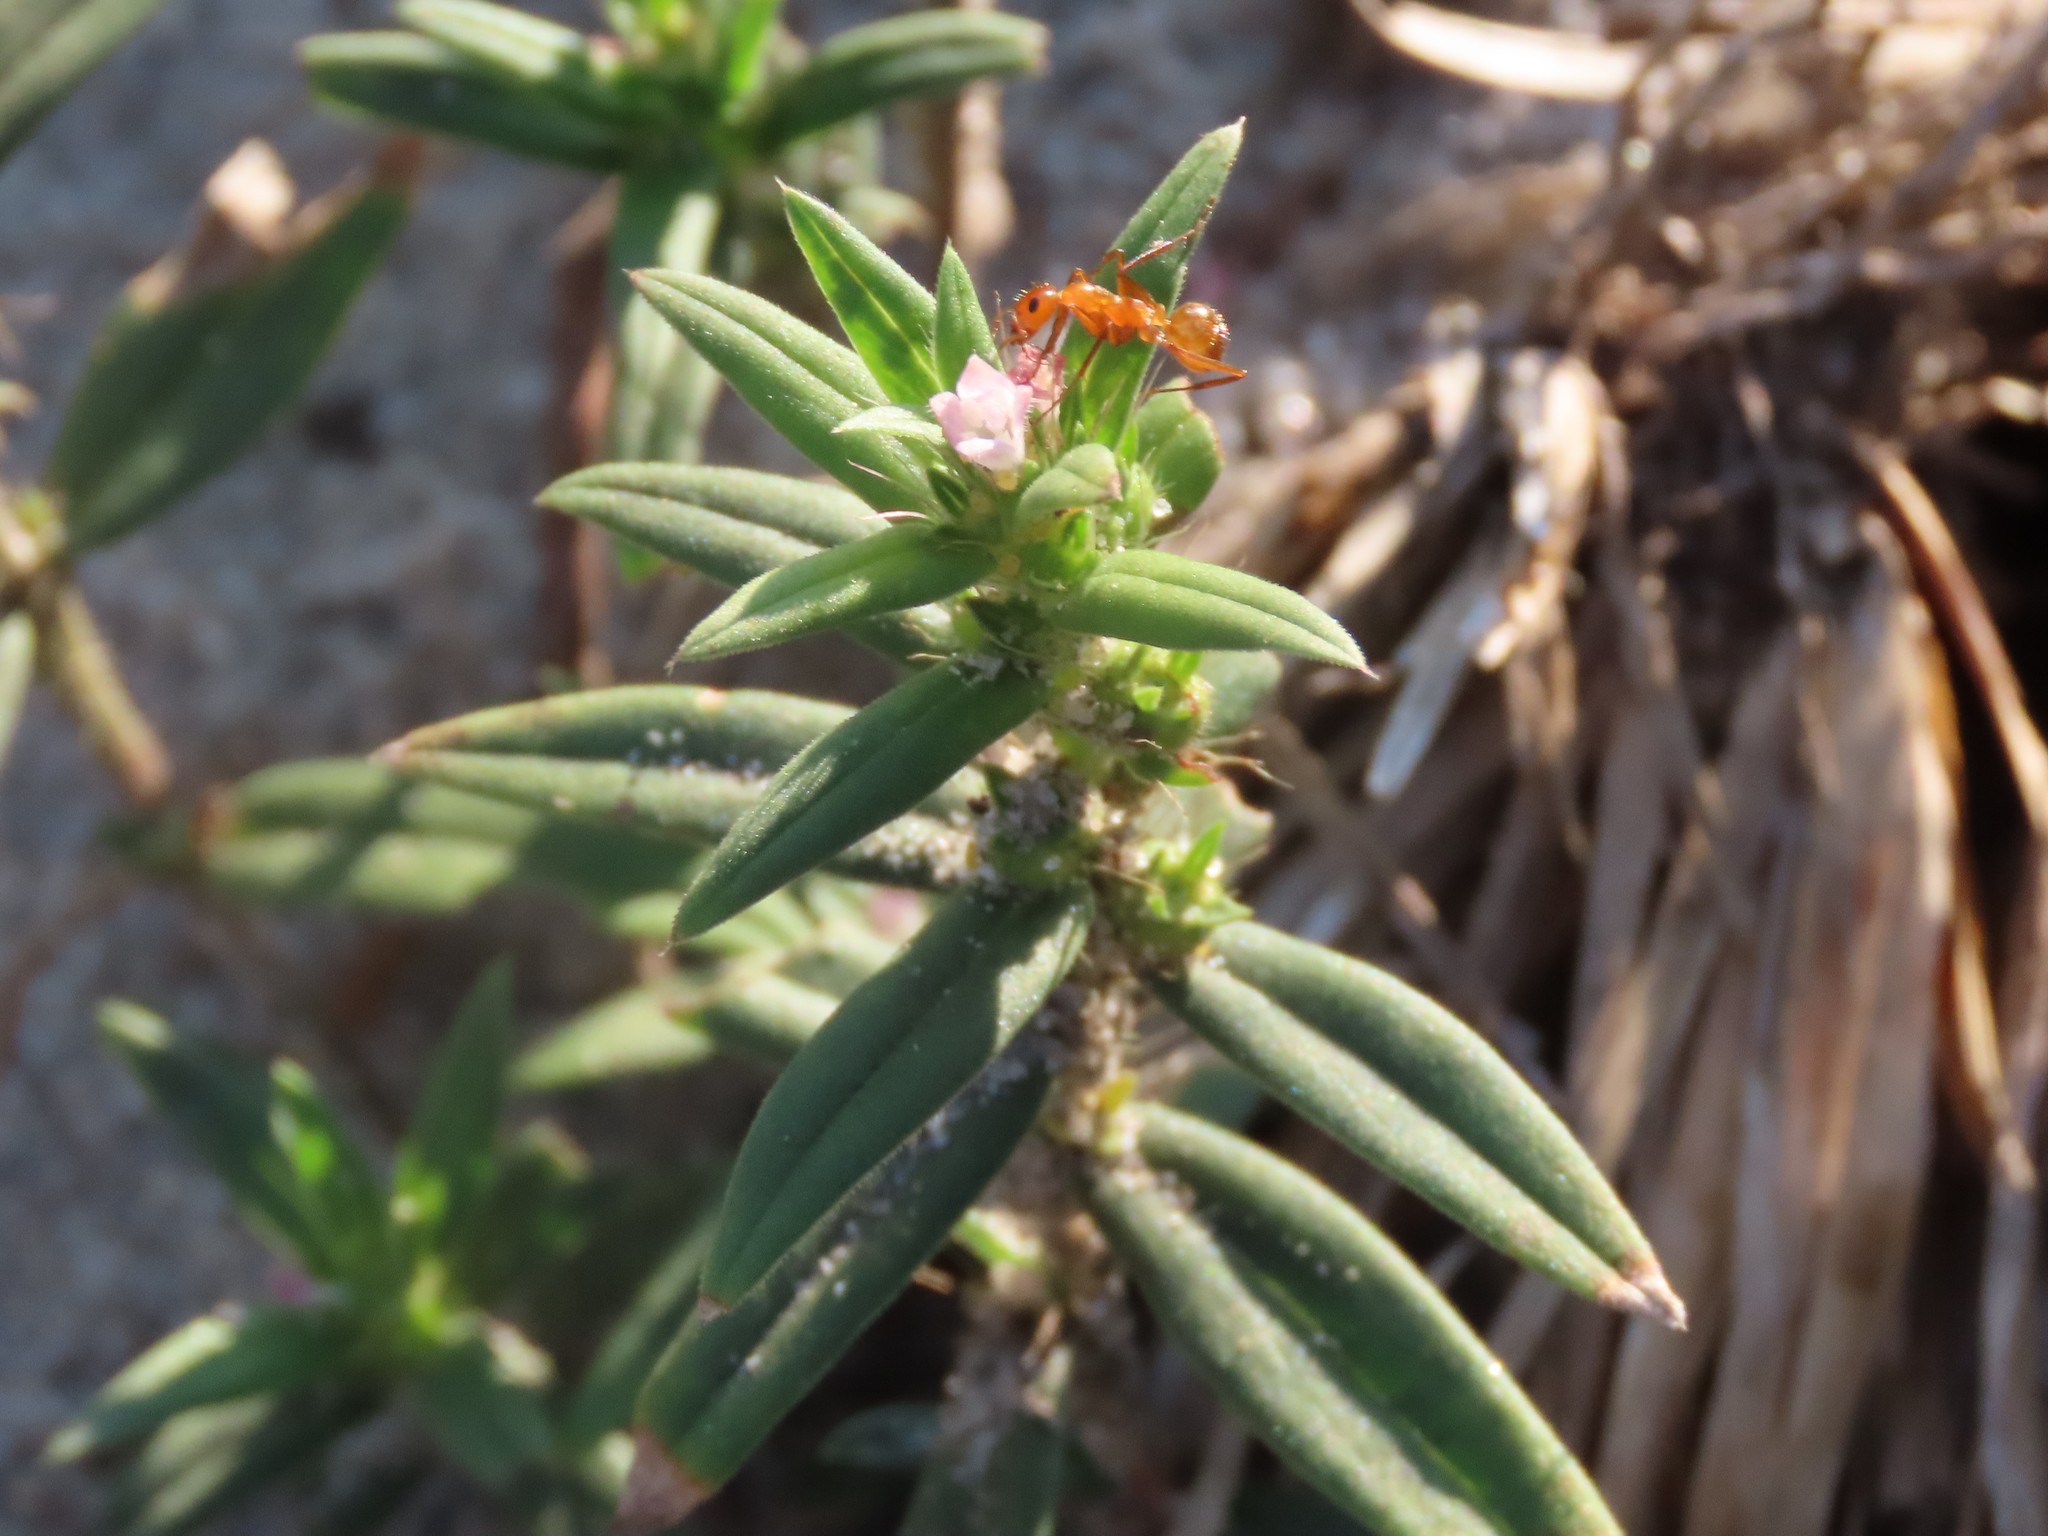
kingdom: Plantae
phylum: Tracheophyta
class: Magnoliopsida
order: Gentianales
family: Rubiaceae
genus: Hexasepalum
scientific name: Hexasepalum teres
